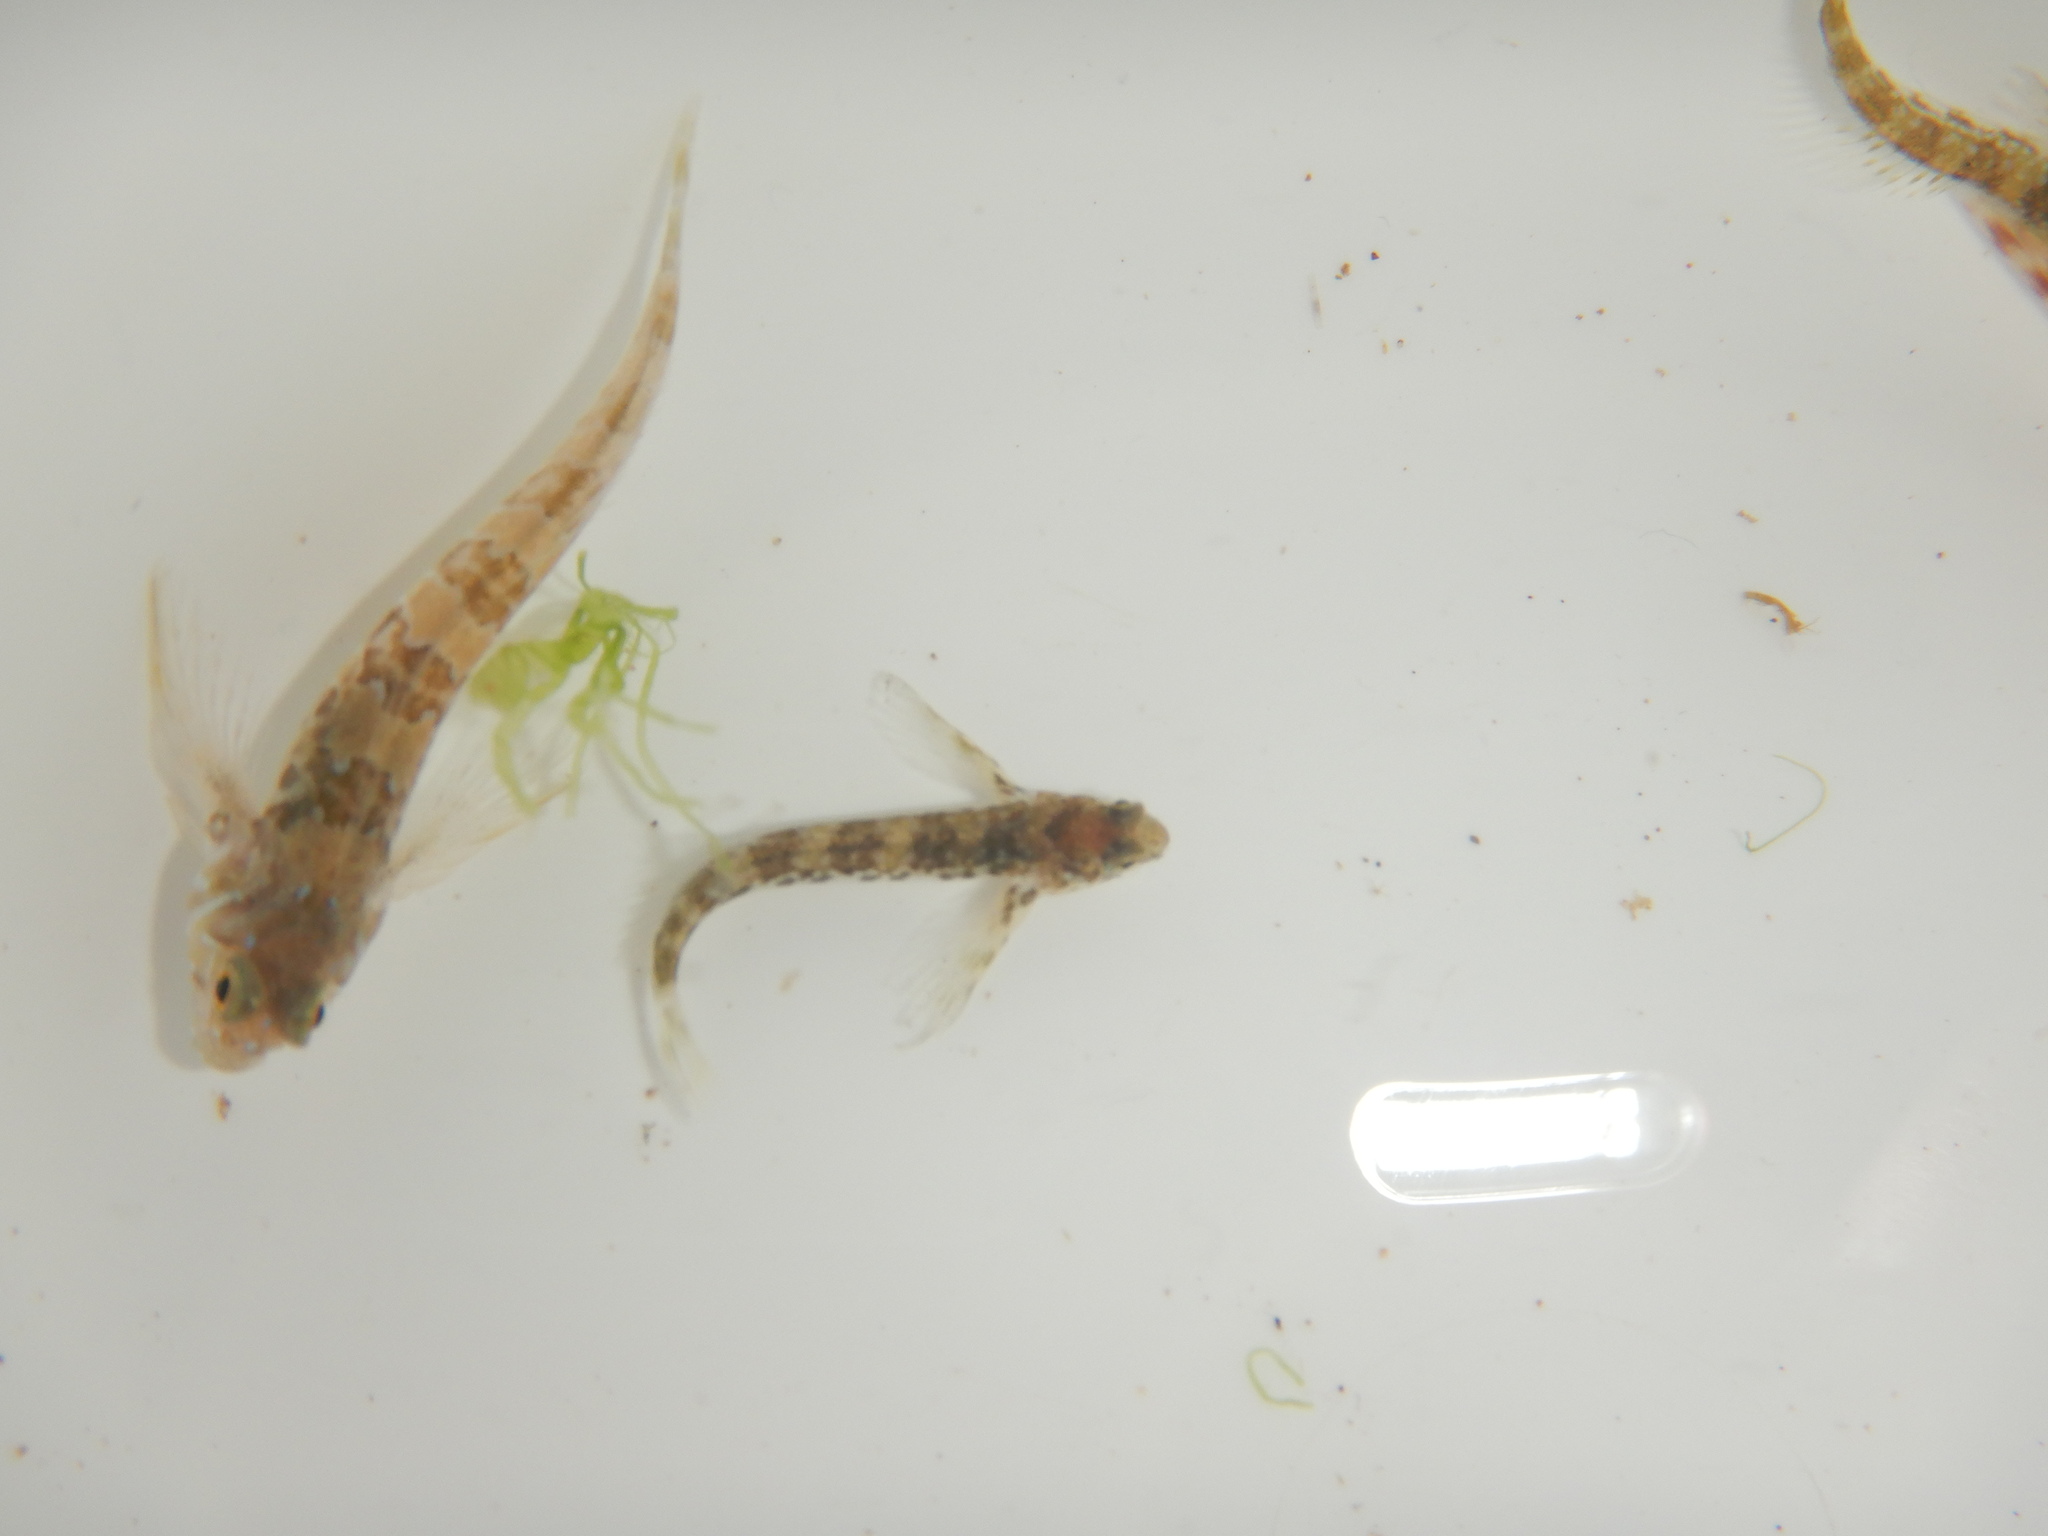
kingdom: Animalia
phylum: Chordata
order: Perciformes
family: Blenniidae
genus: Aidablennius
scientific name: Aidablennius sphynx
